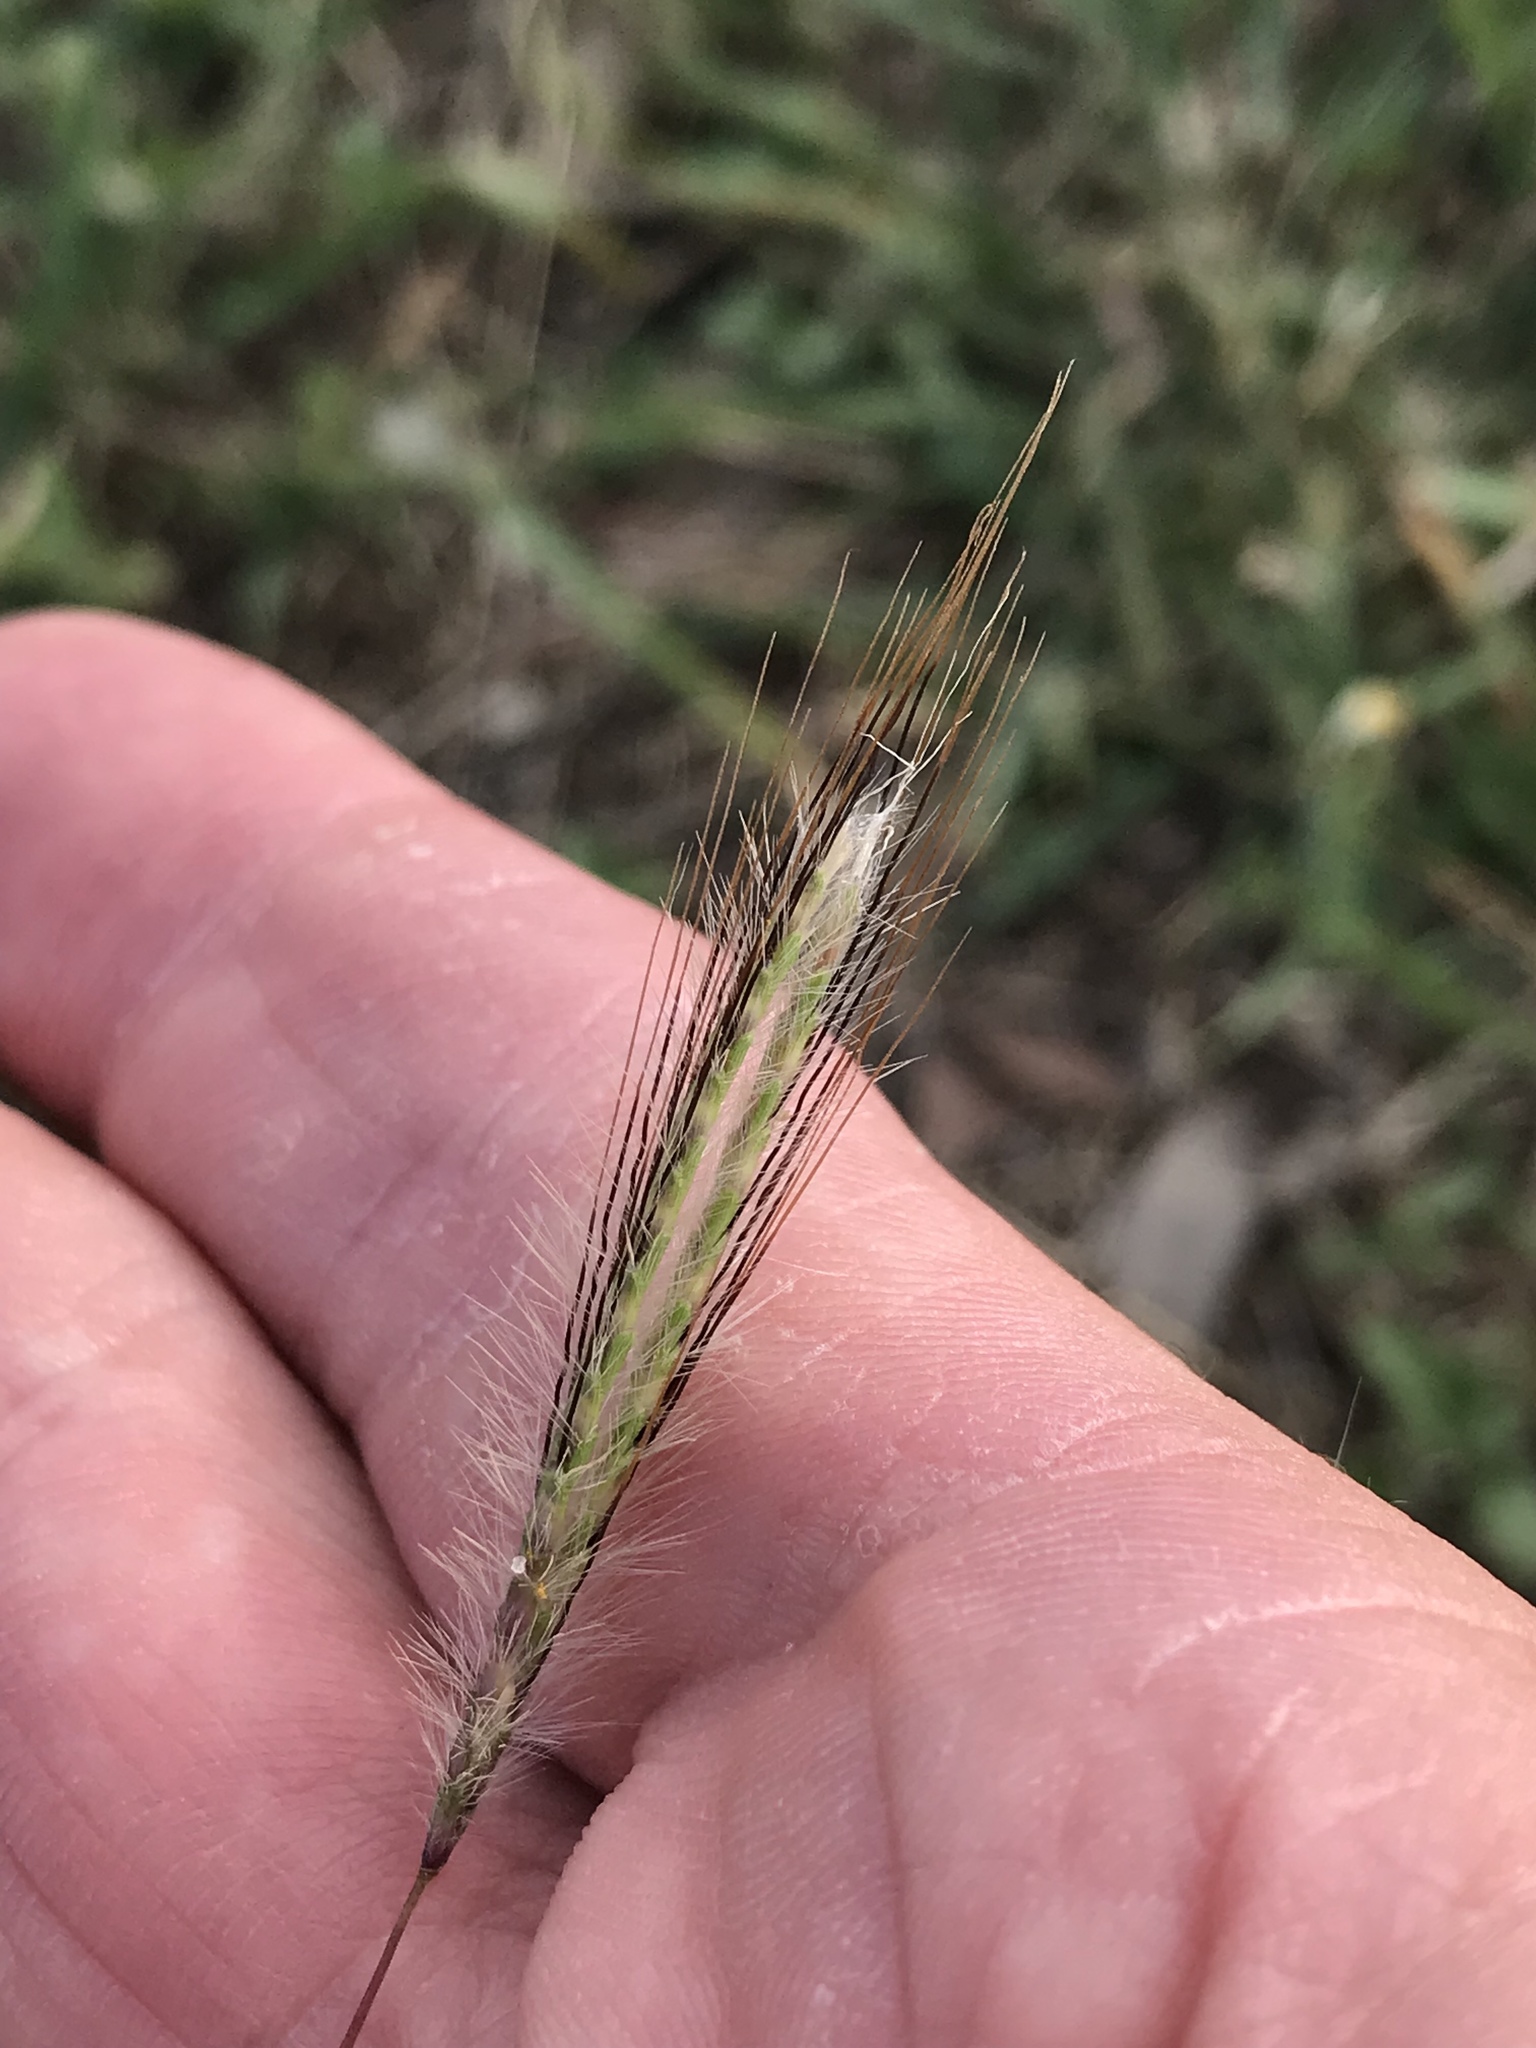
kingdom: Plantae
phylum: Tracheophyta
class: Liliopsida
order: Poales
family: Poaceae
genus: Dichanthium
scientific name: Dichanthium sericeum
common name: Silky bluestem
